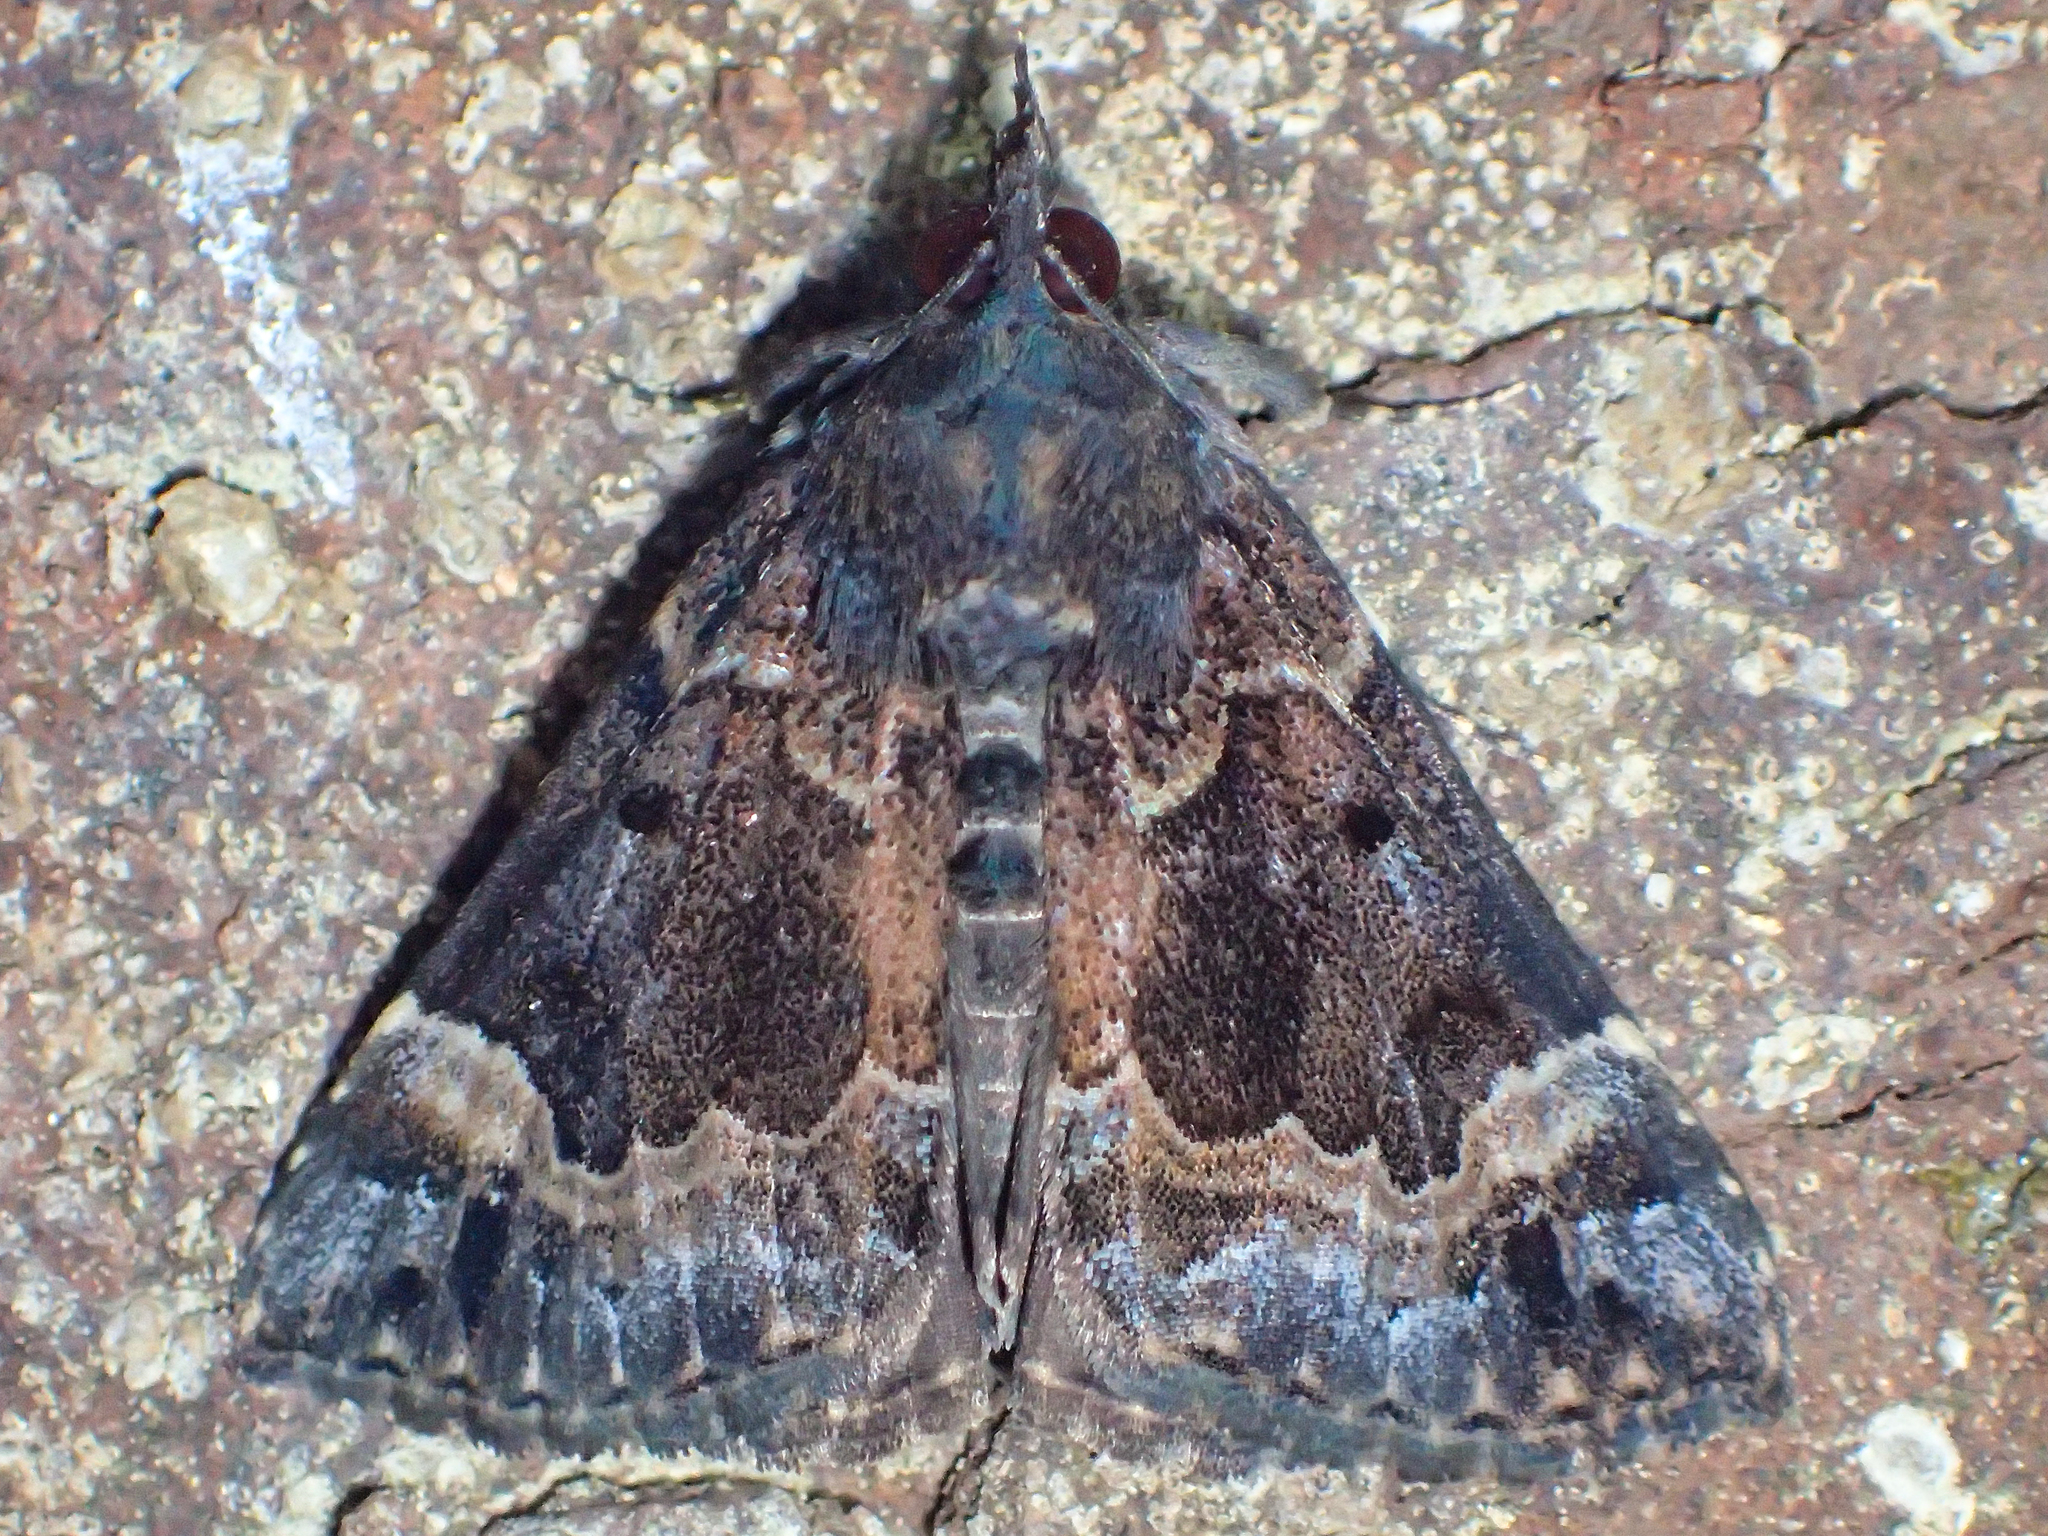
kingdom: Animalia
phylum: Arthropoda
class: Insecta
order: Lepidoptera
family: Erebidae
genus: Hypena
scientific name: Hypena palparia
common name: Mottled bomolocha moth
